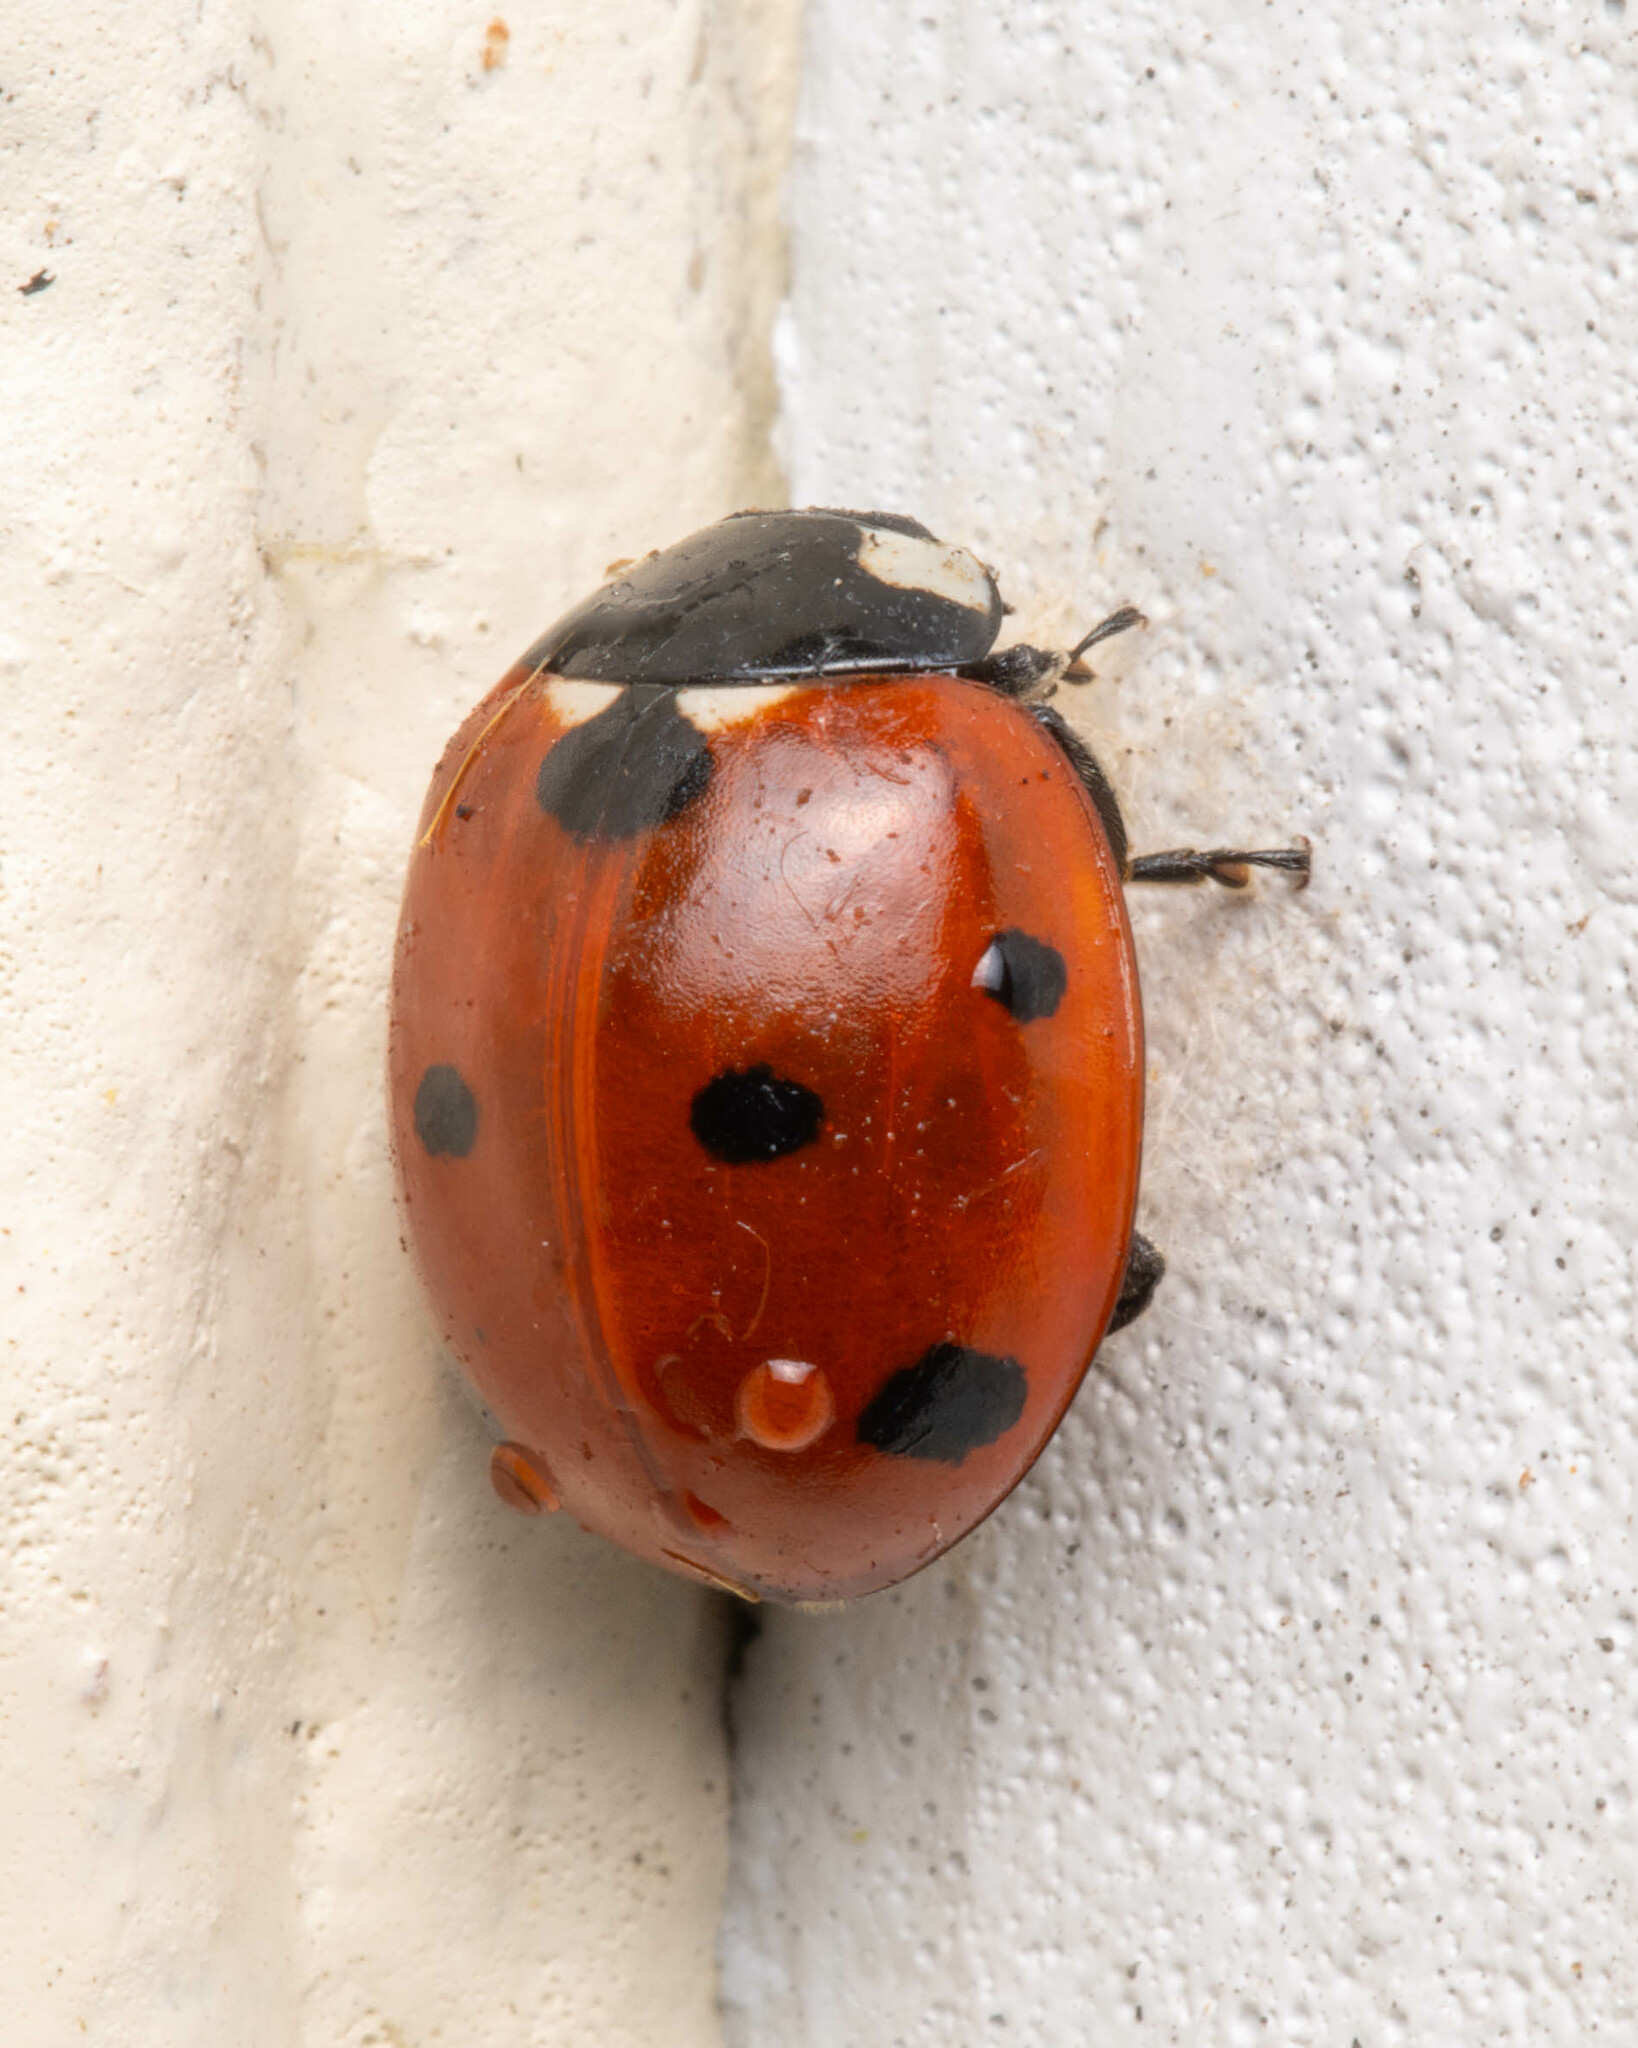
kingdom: Animalia
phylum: Arthropoda
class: Insecta
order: Coleoptera
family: Coccinellidae
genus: Coccinella
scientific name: Coccinella septempunctata
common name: Sevenspotted lady beetle
